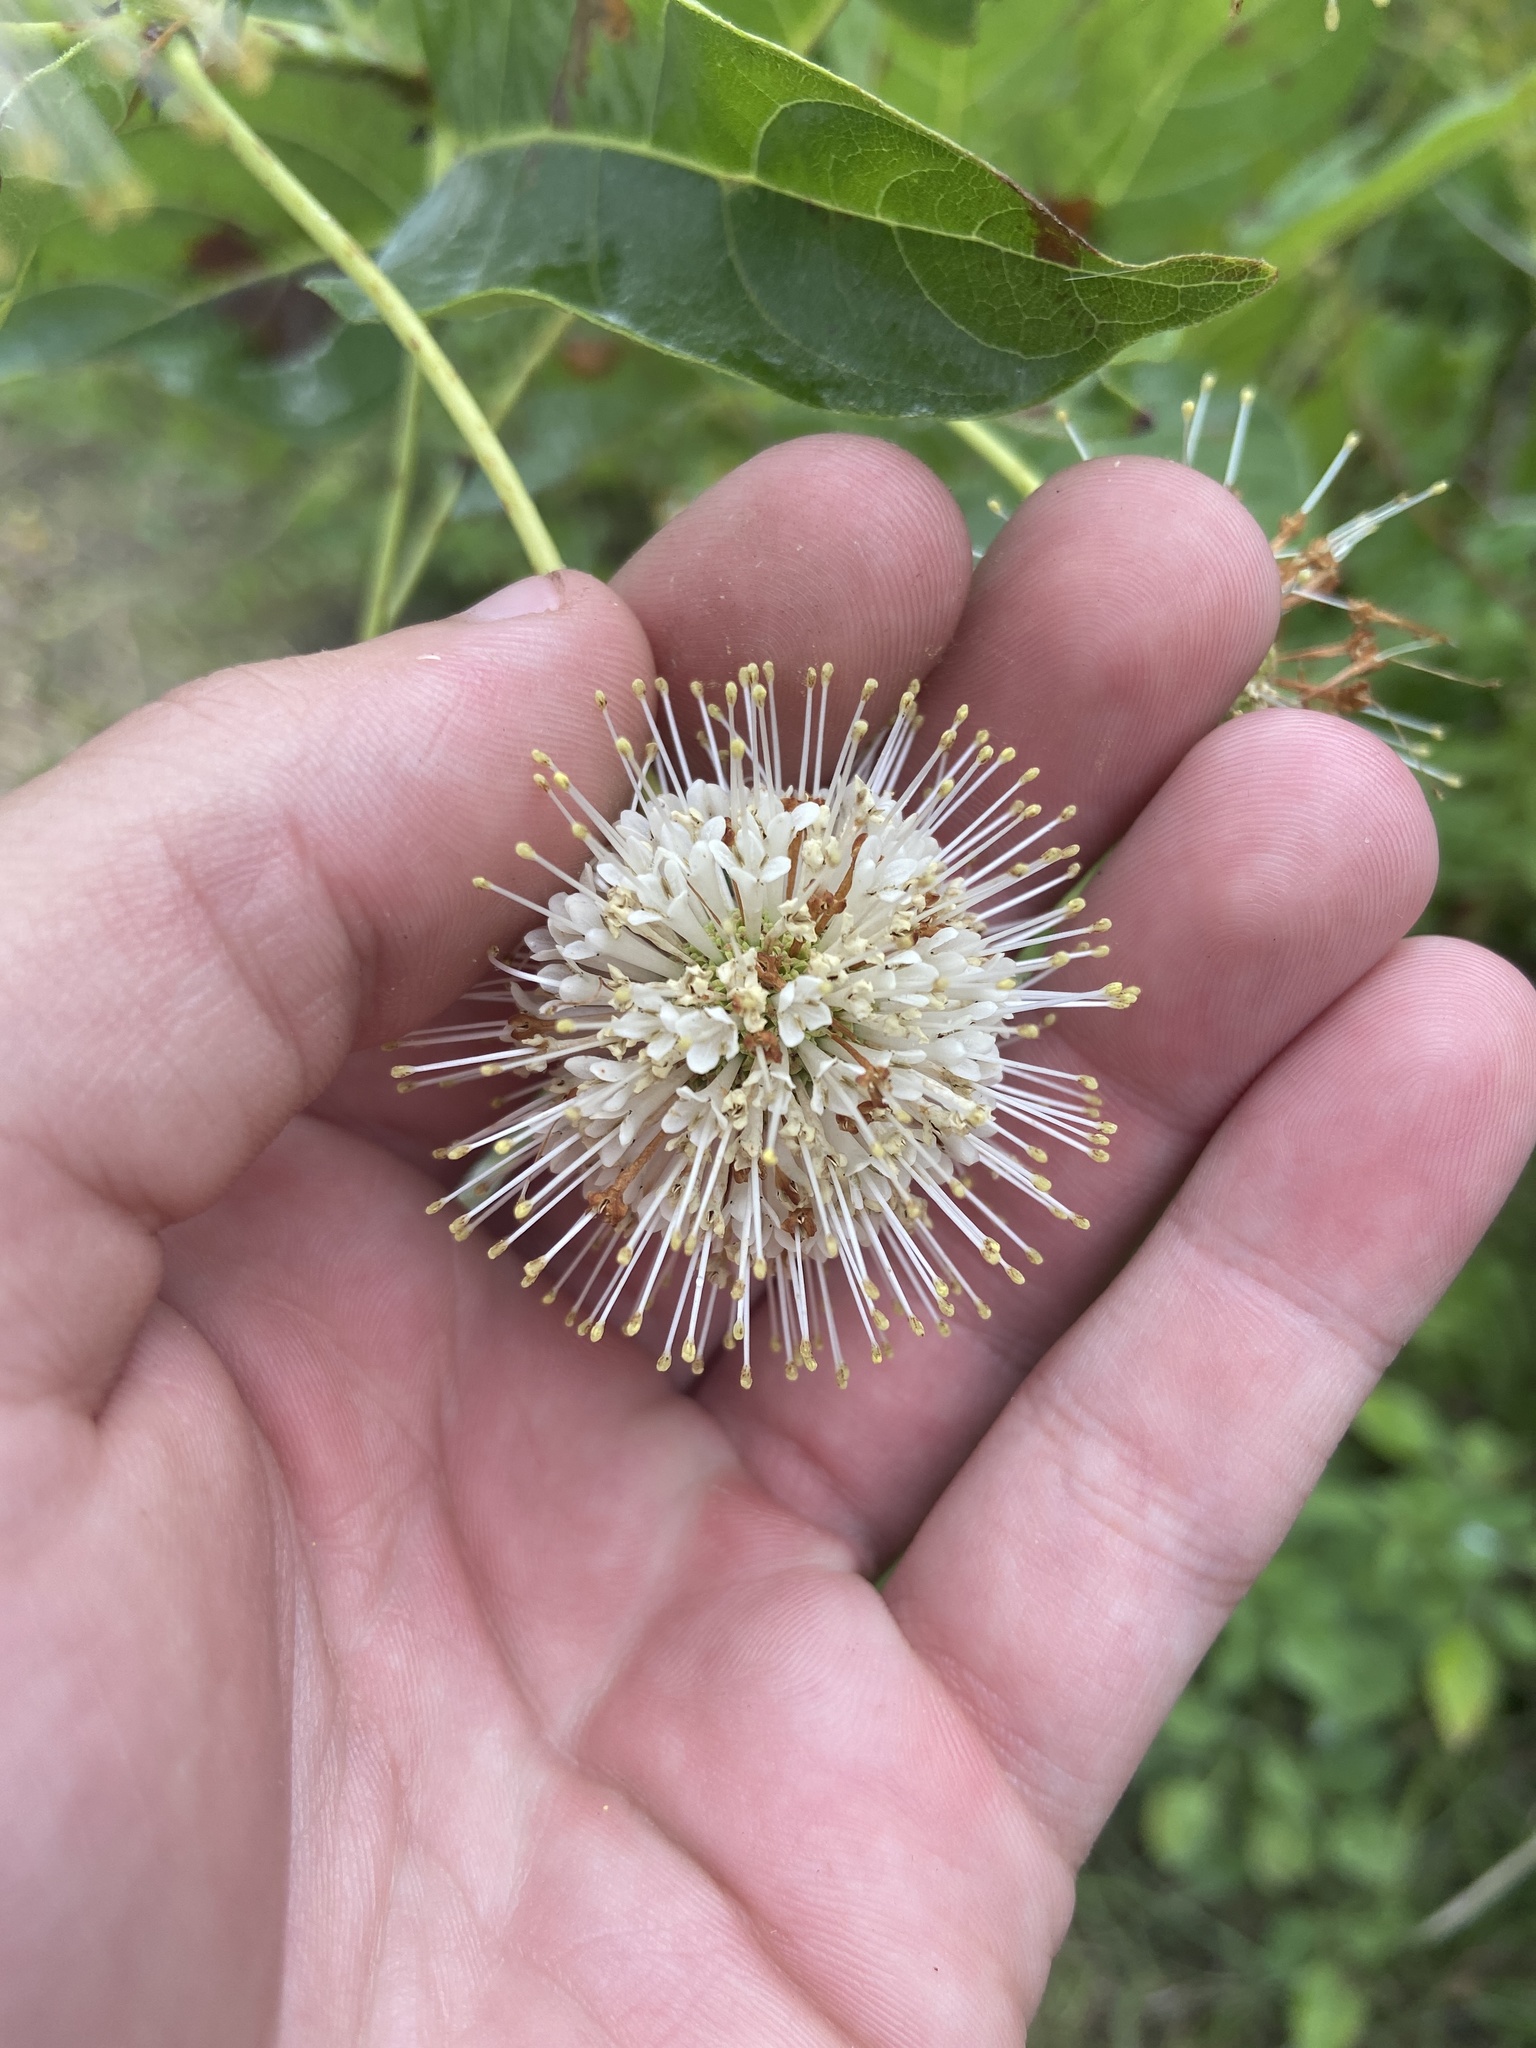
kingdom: Plantae
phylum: Tracheophyta
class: Magnoliopsida
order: Gentianales
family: Rubiaceae
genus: Cephalanthus
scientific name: Cephalanthus occidentalis
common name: Button-willow
